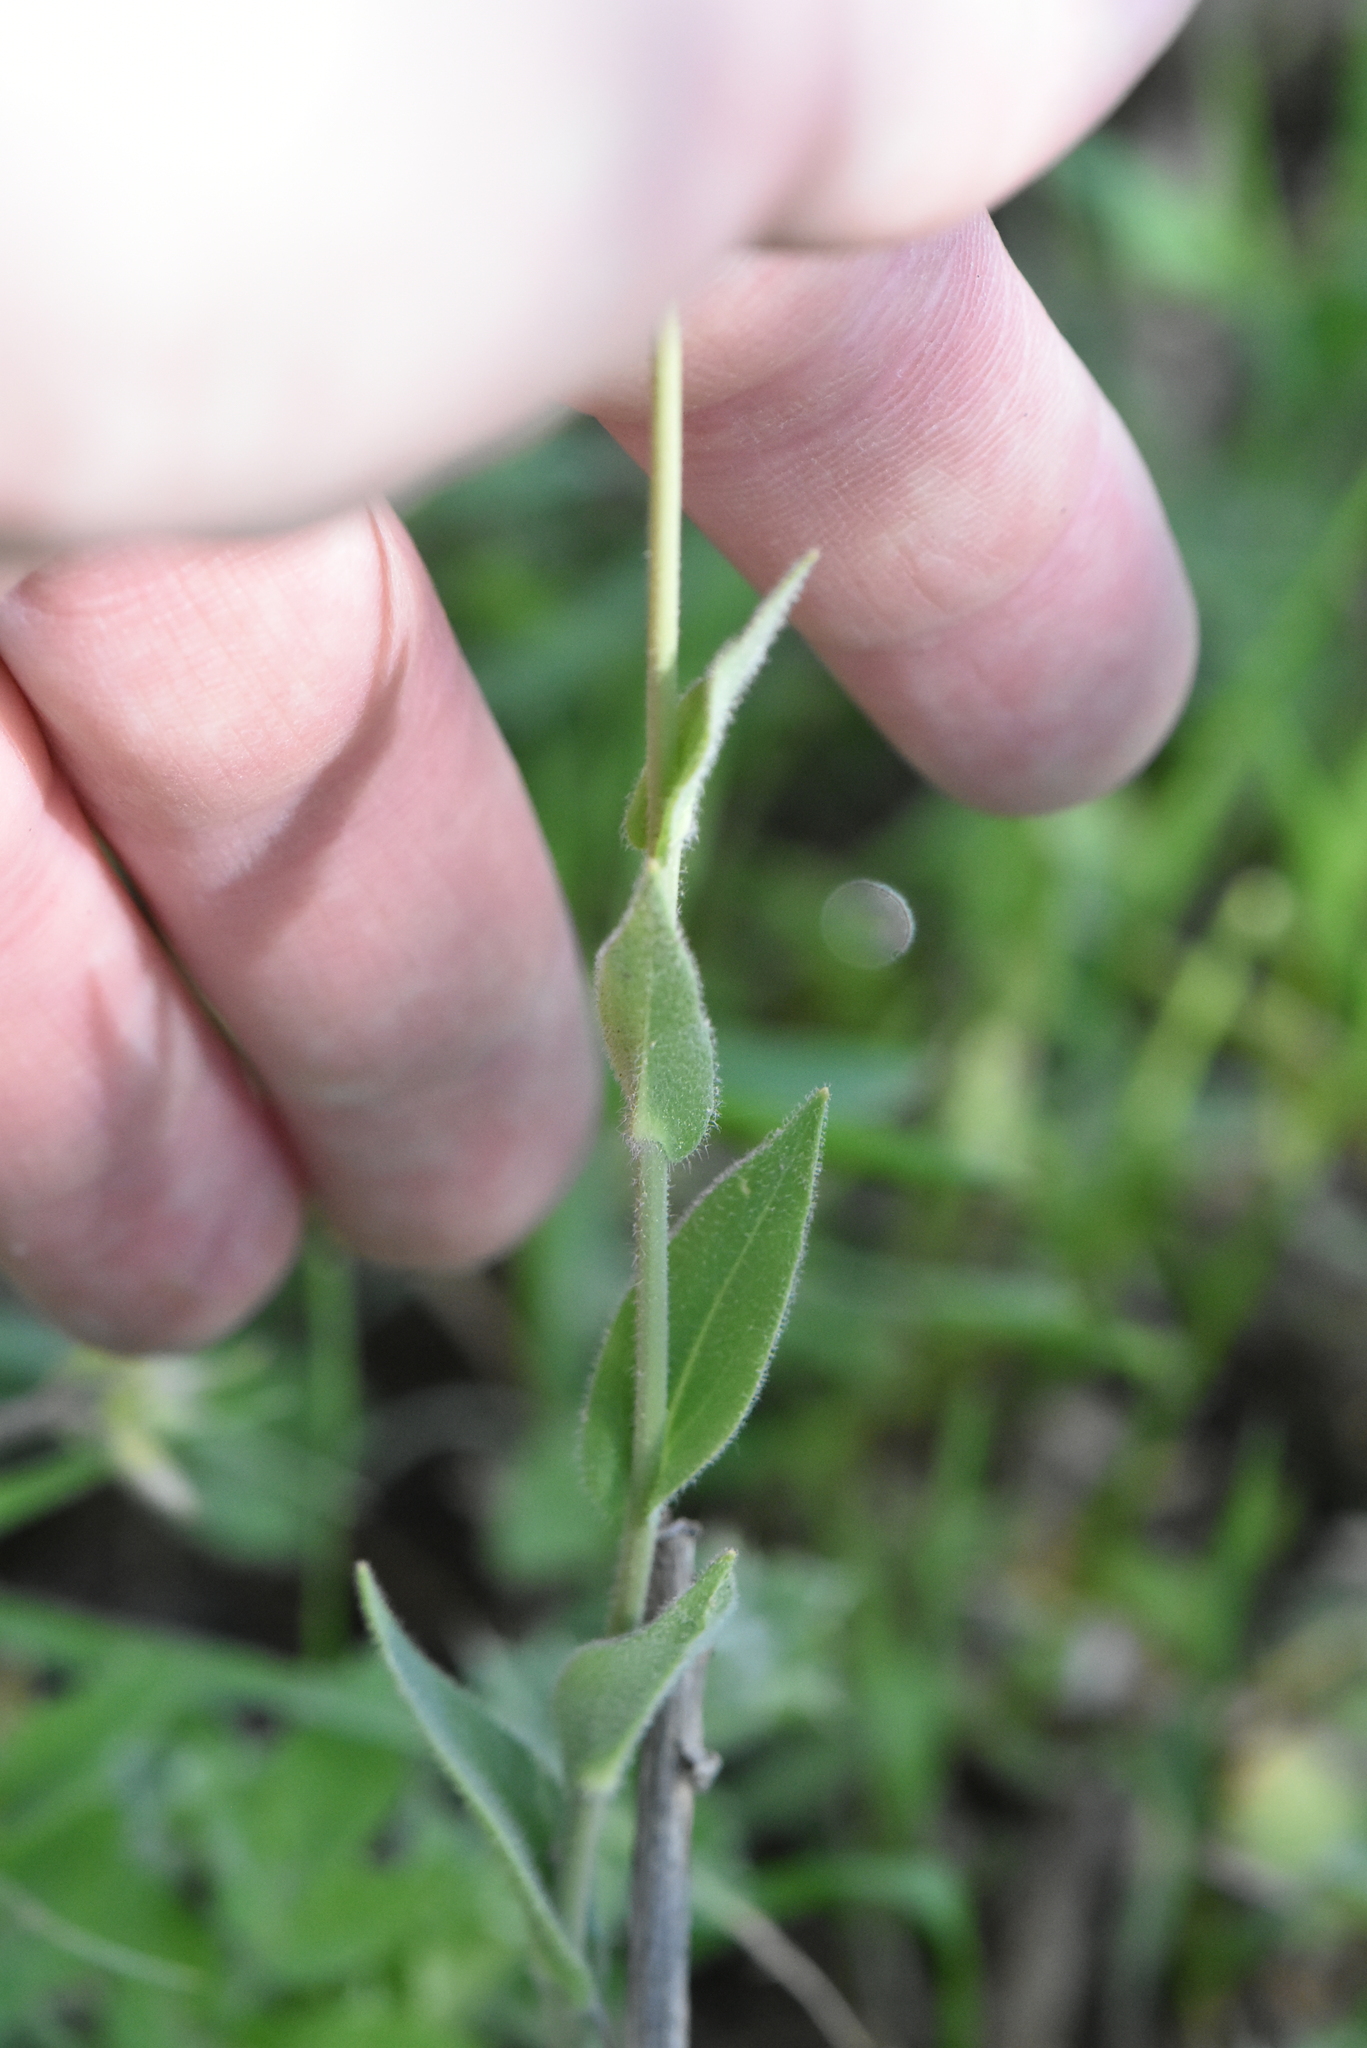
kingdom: Plantae
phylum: Tracheophyta
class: Magnoliopsida
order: Brassicales
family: Brassicaceae
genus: Turritis
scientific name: Turritis glabra
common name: Tower rockcress
